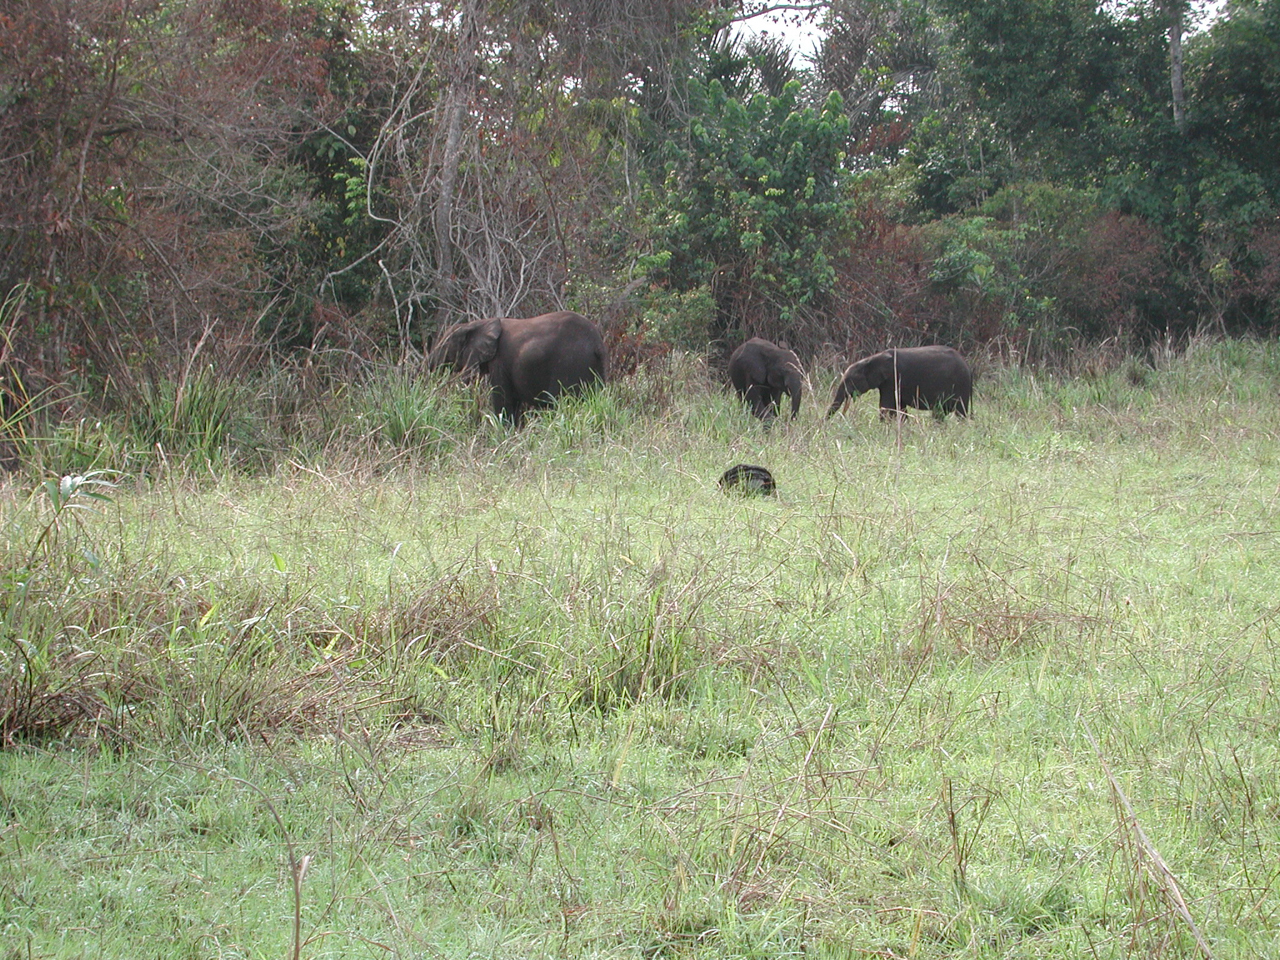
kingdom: Animalia
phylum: Chordata
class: Mammalia
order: Proboscidea
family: Elephantidae
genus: Loxodonta
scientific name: Loxodonta cyclotis
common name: African forest elephant
